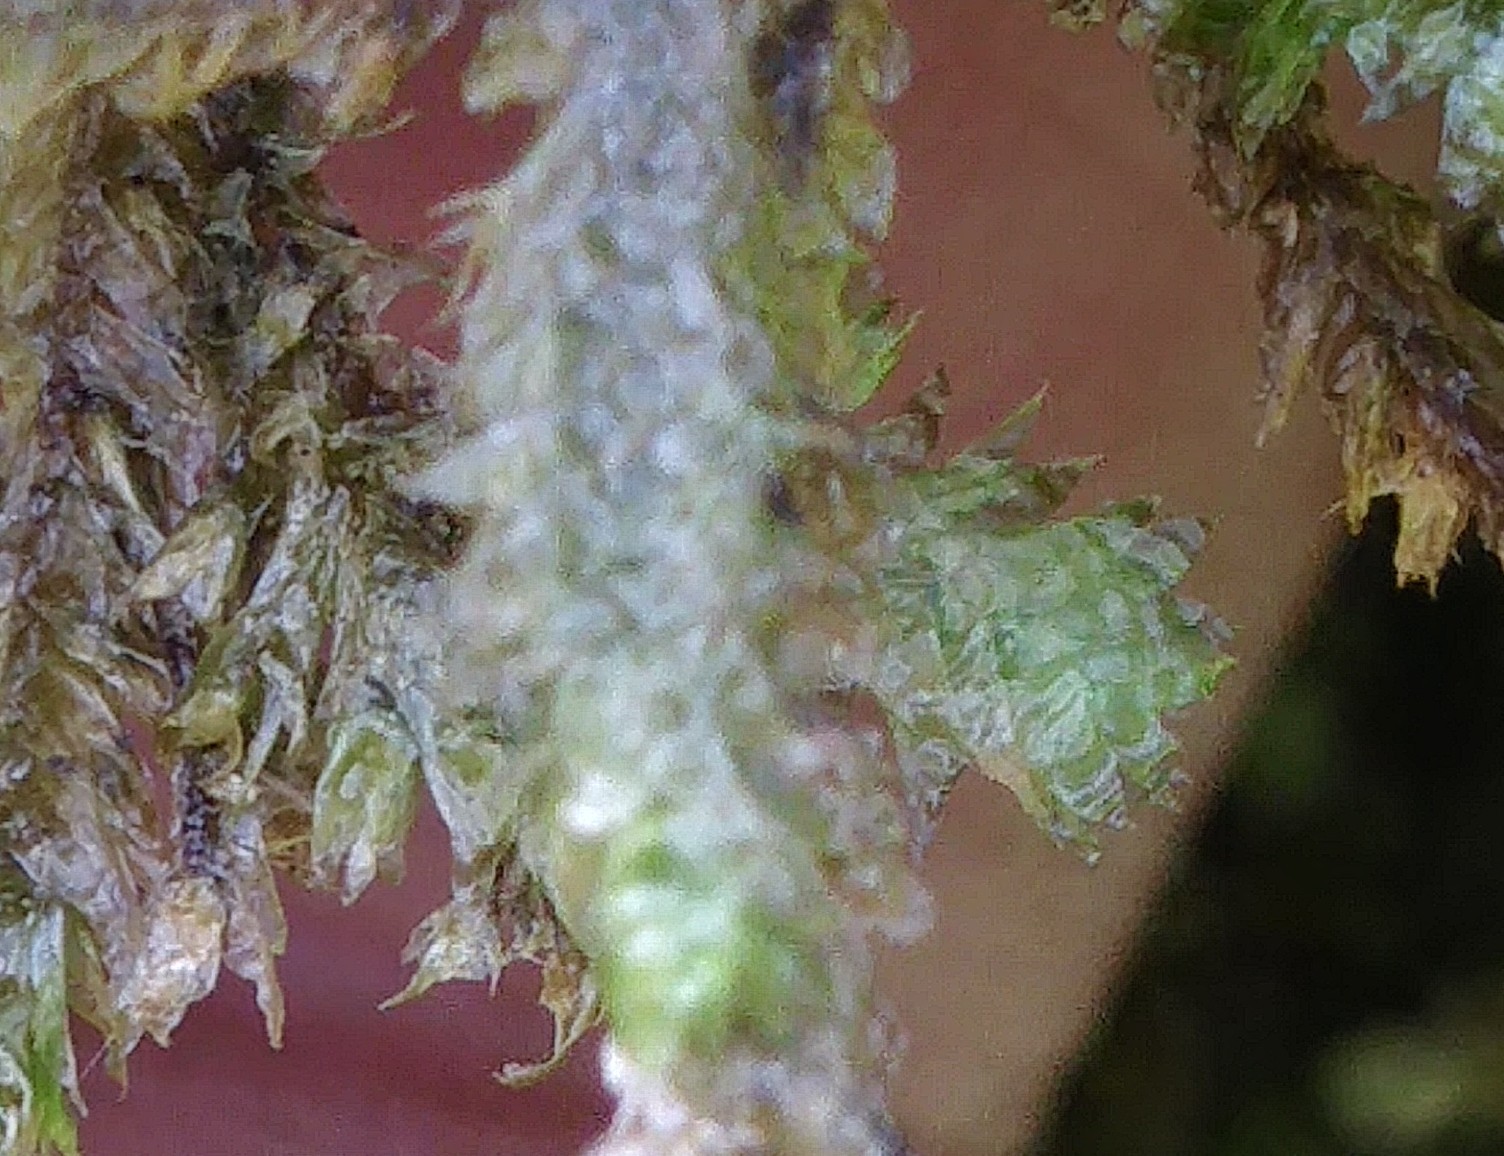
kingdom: Plantae
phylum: Bryophyta
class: Bryopsida
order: Hypnales
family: Neckeraceae
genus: Neckera
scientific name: Neckera pennata
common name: Feathery neckera
